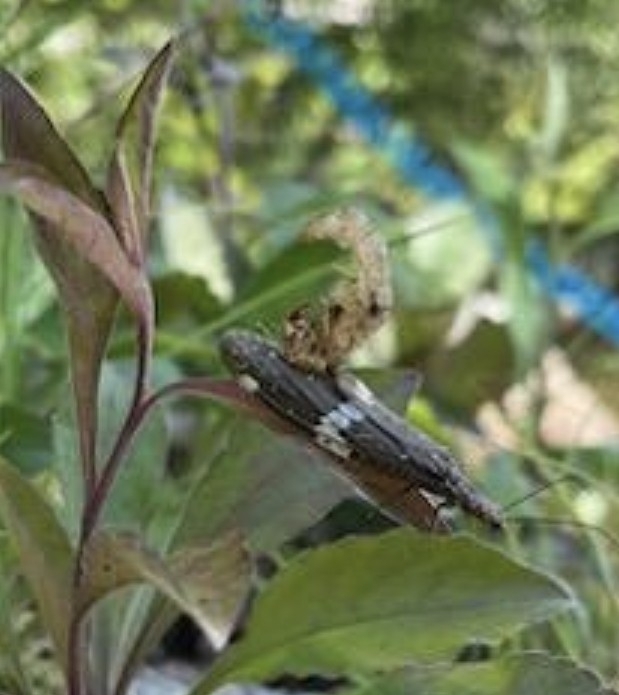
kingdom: Animalia
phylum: Arthropoda
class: Insecta
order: Megaloptera
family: Corydalidae
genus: Nigronia
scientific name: Nigronia serricornis
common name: Serrate dark fishfly
